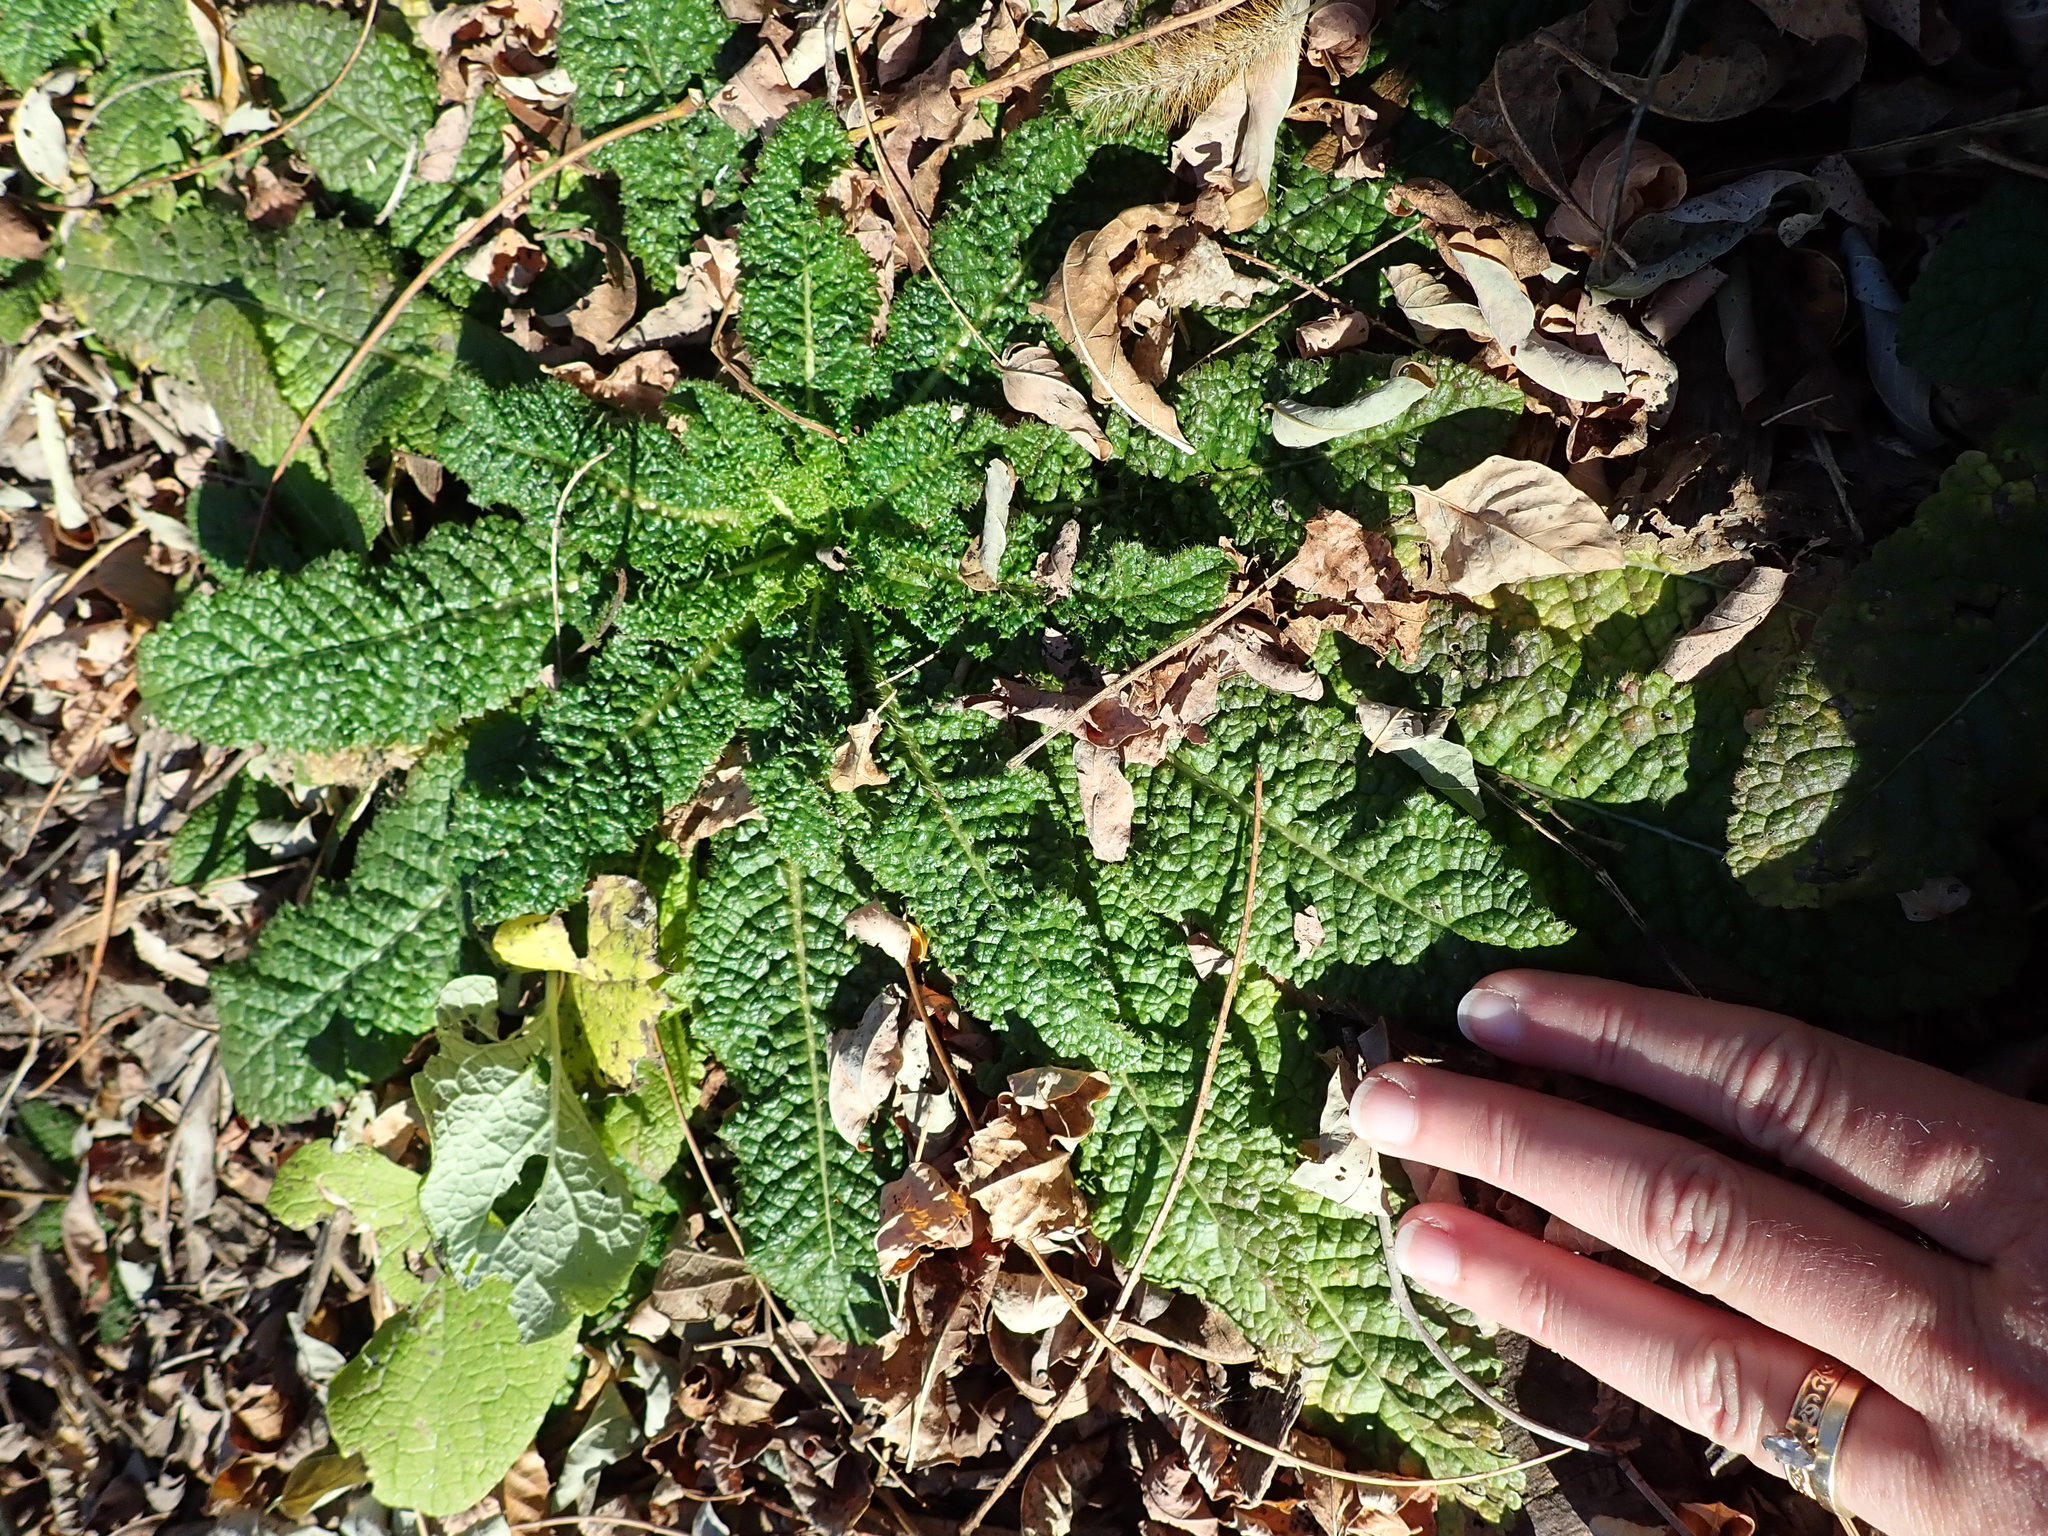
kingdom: Plantae
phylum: Tracheophyta
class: Magnoliopsida
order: Dipsacales
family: Caprifoliaceae
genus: Dipsacus
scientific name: Dipsacus fullonum
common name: Teasel
